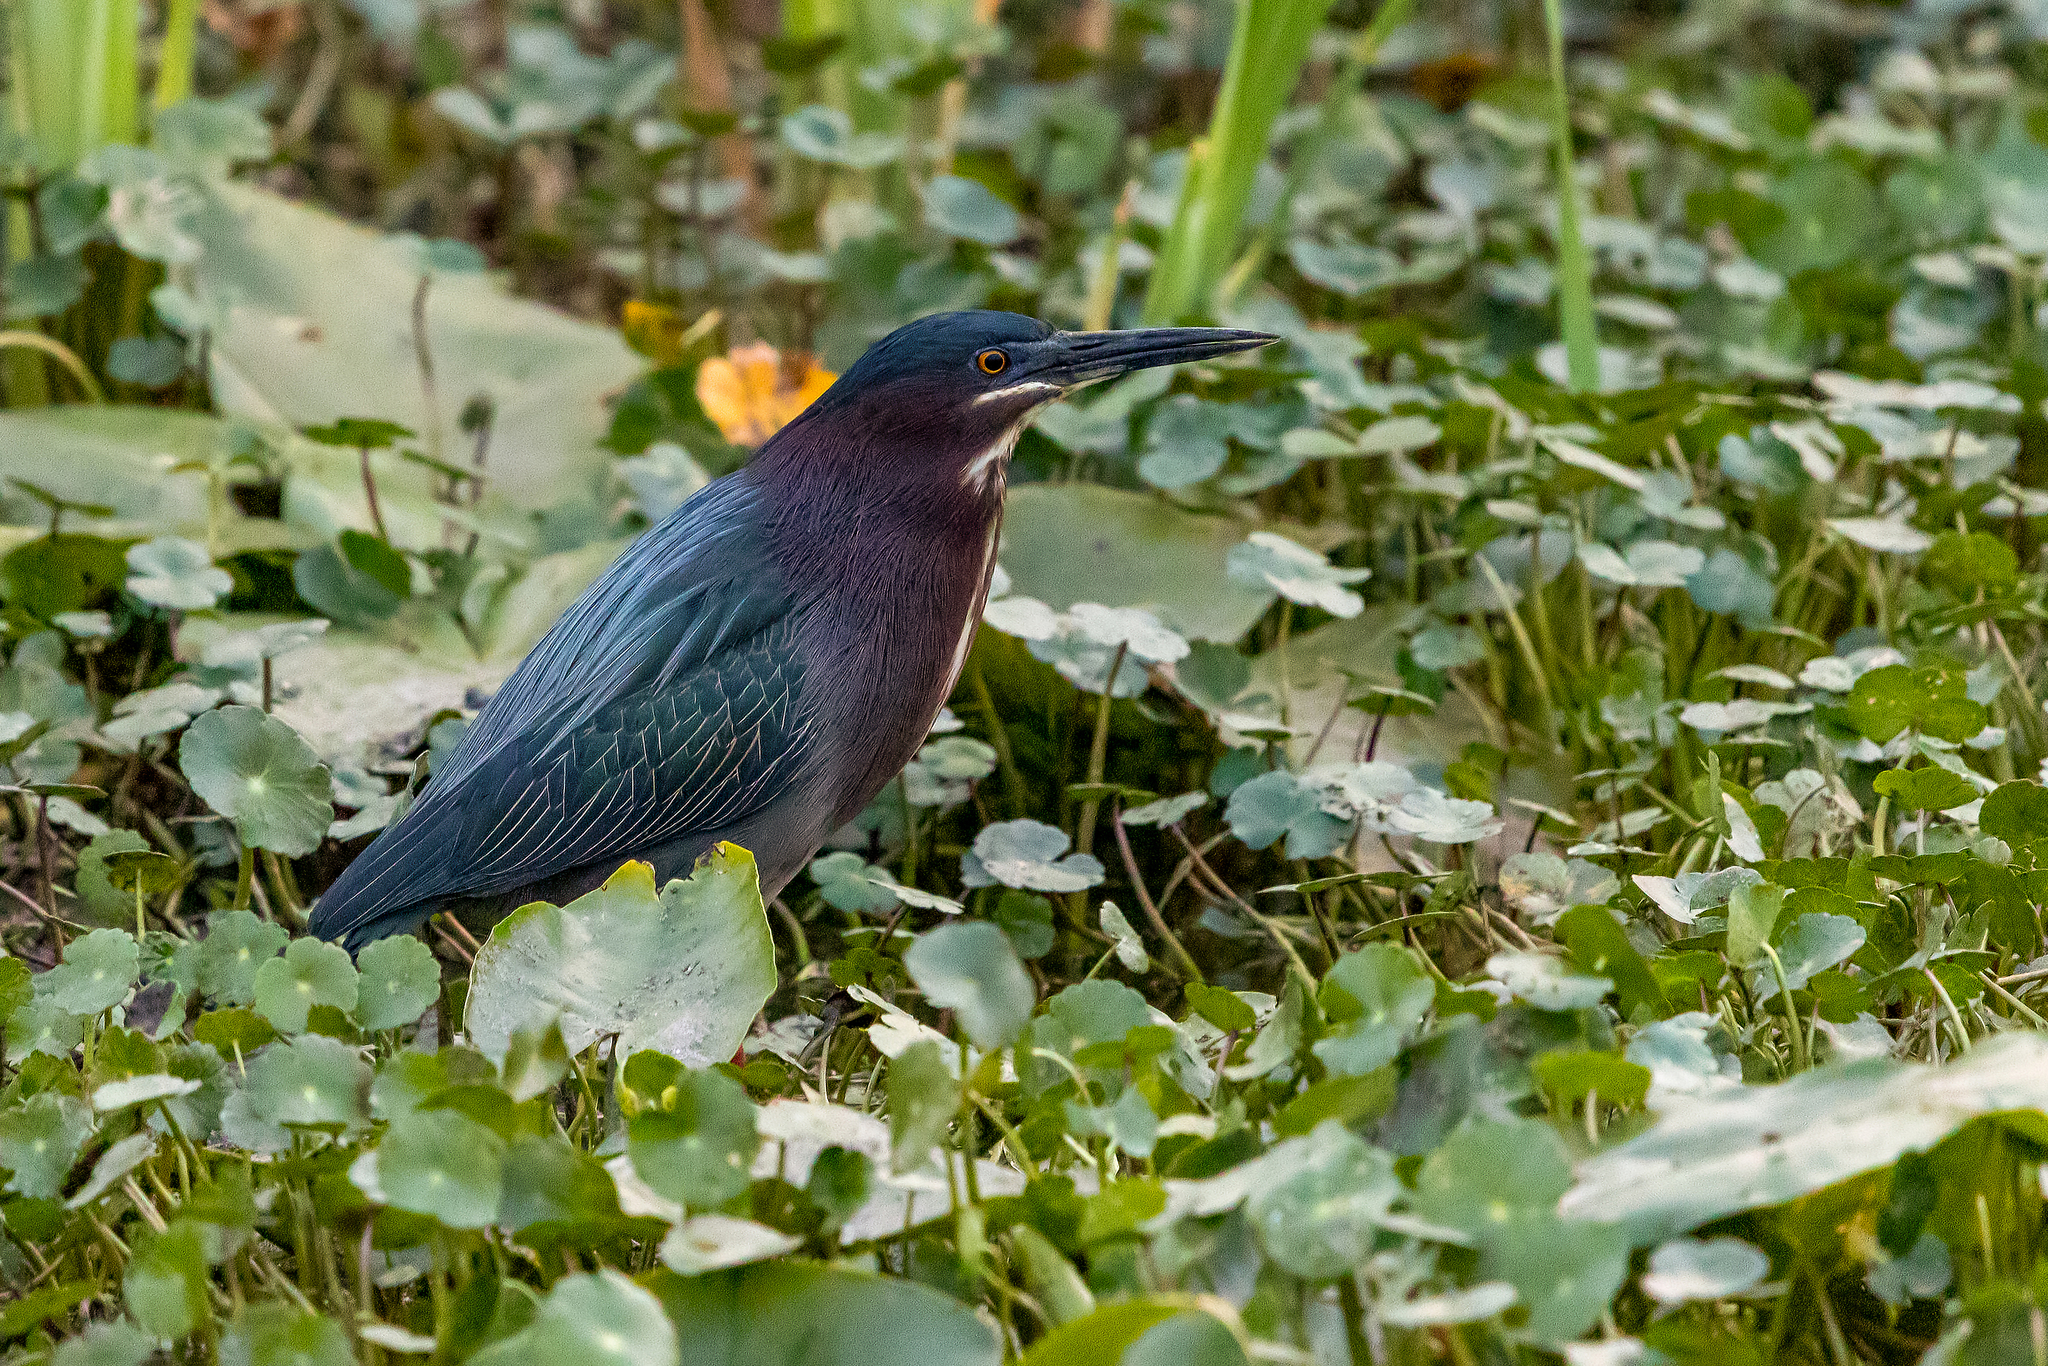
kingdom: Animalia
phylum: Chordata
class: Aves
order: Pelecaniformes
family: Ardeidae
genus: Butorides
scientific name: Butorides virescens
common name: Green heron
